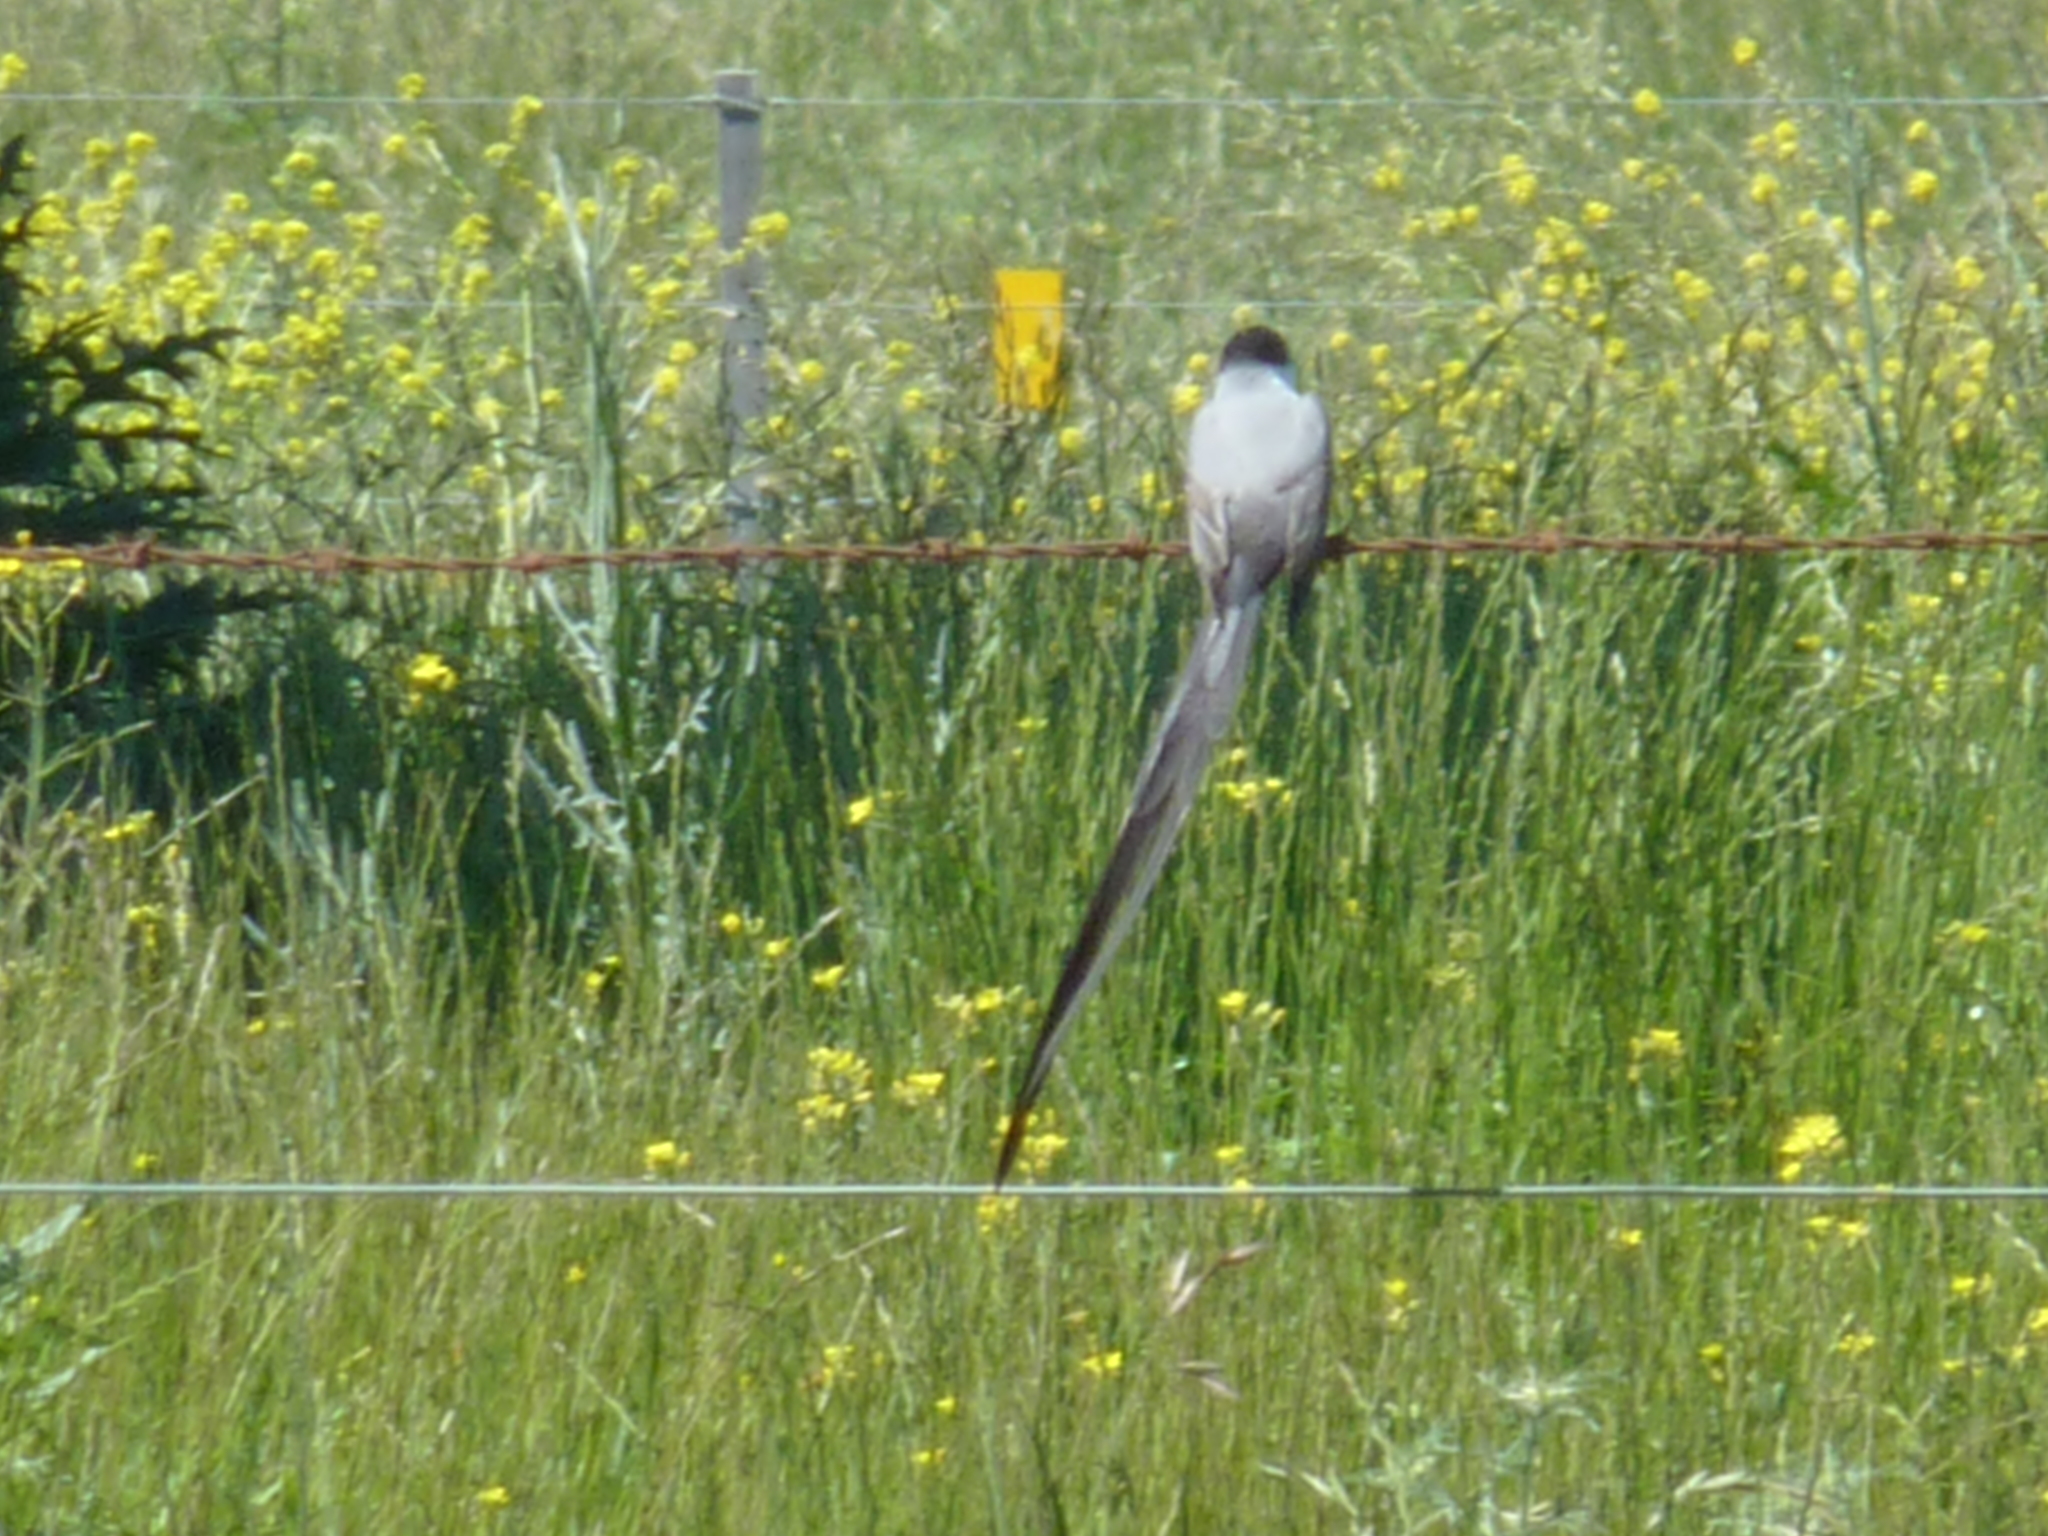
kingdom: Animalia
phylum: Chordata
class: Aves
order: Passeriformes
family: Tyrannidae
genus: Tyrannus
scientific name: Tyrannus savana
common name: Fork-tailed flycatcher
